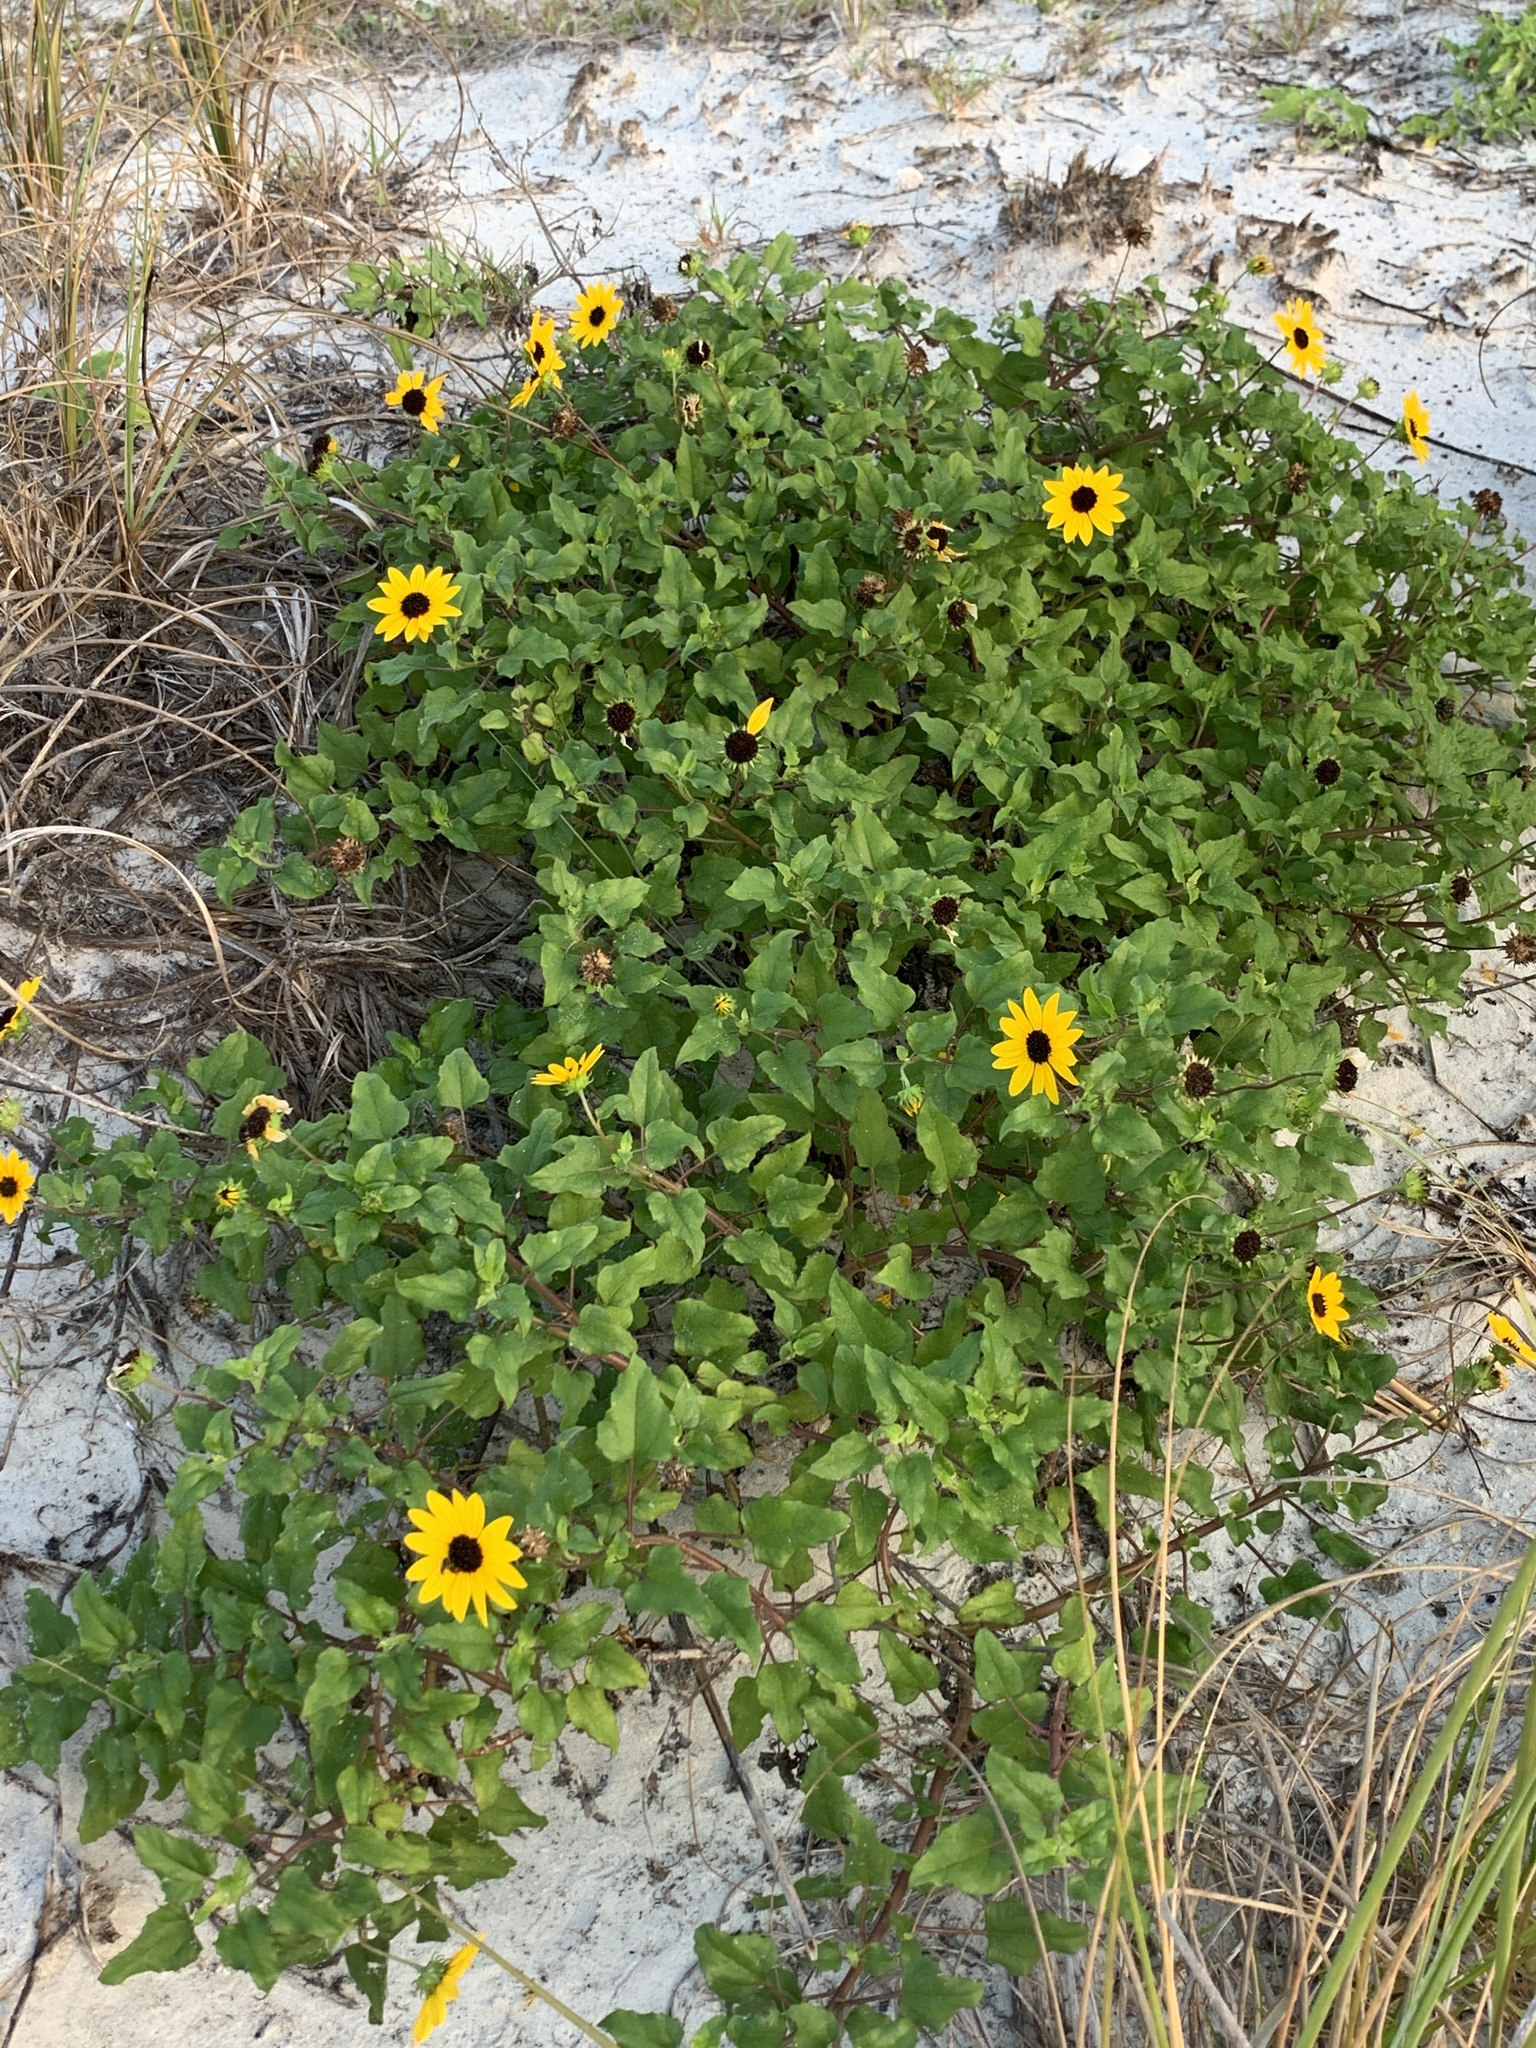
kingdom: Plantae
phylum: Tracheophyta
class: Magnoliopsida
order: Asterales
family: Asteraceae
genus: Helianthus
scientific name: Helianthus debilis
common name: Weak sunflower
